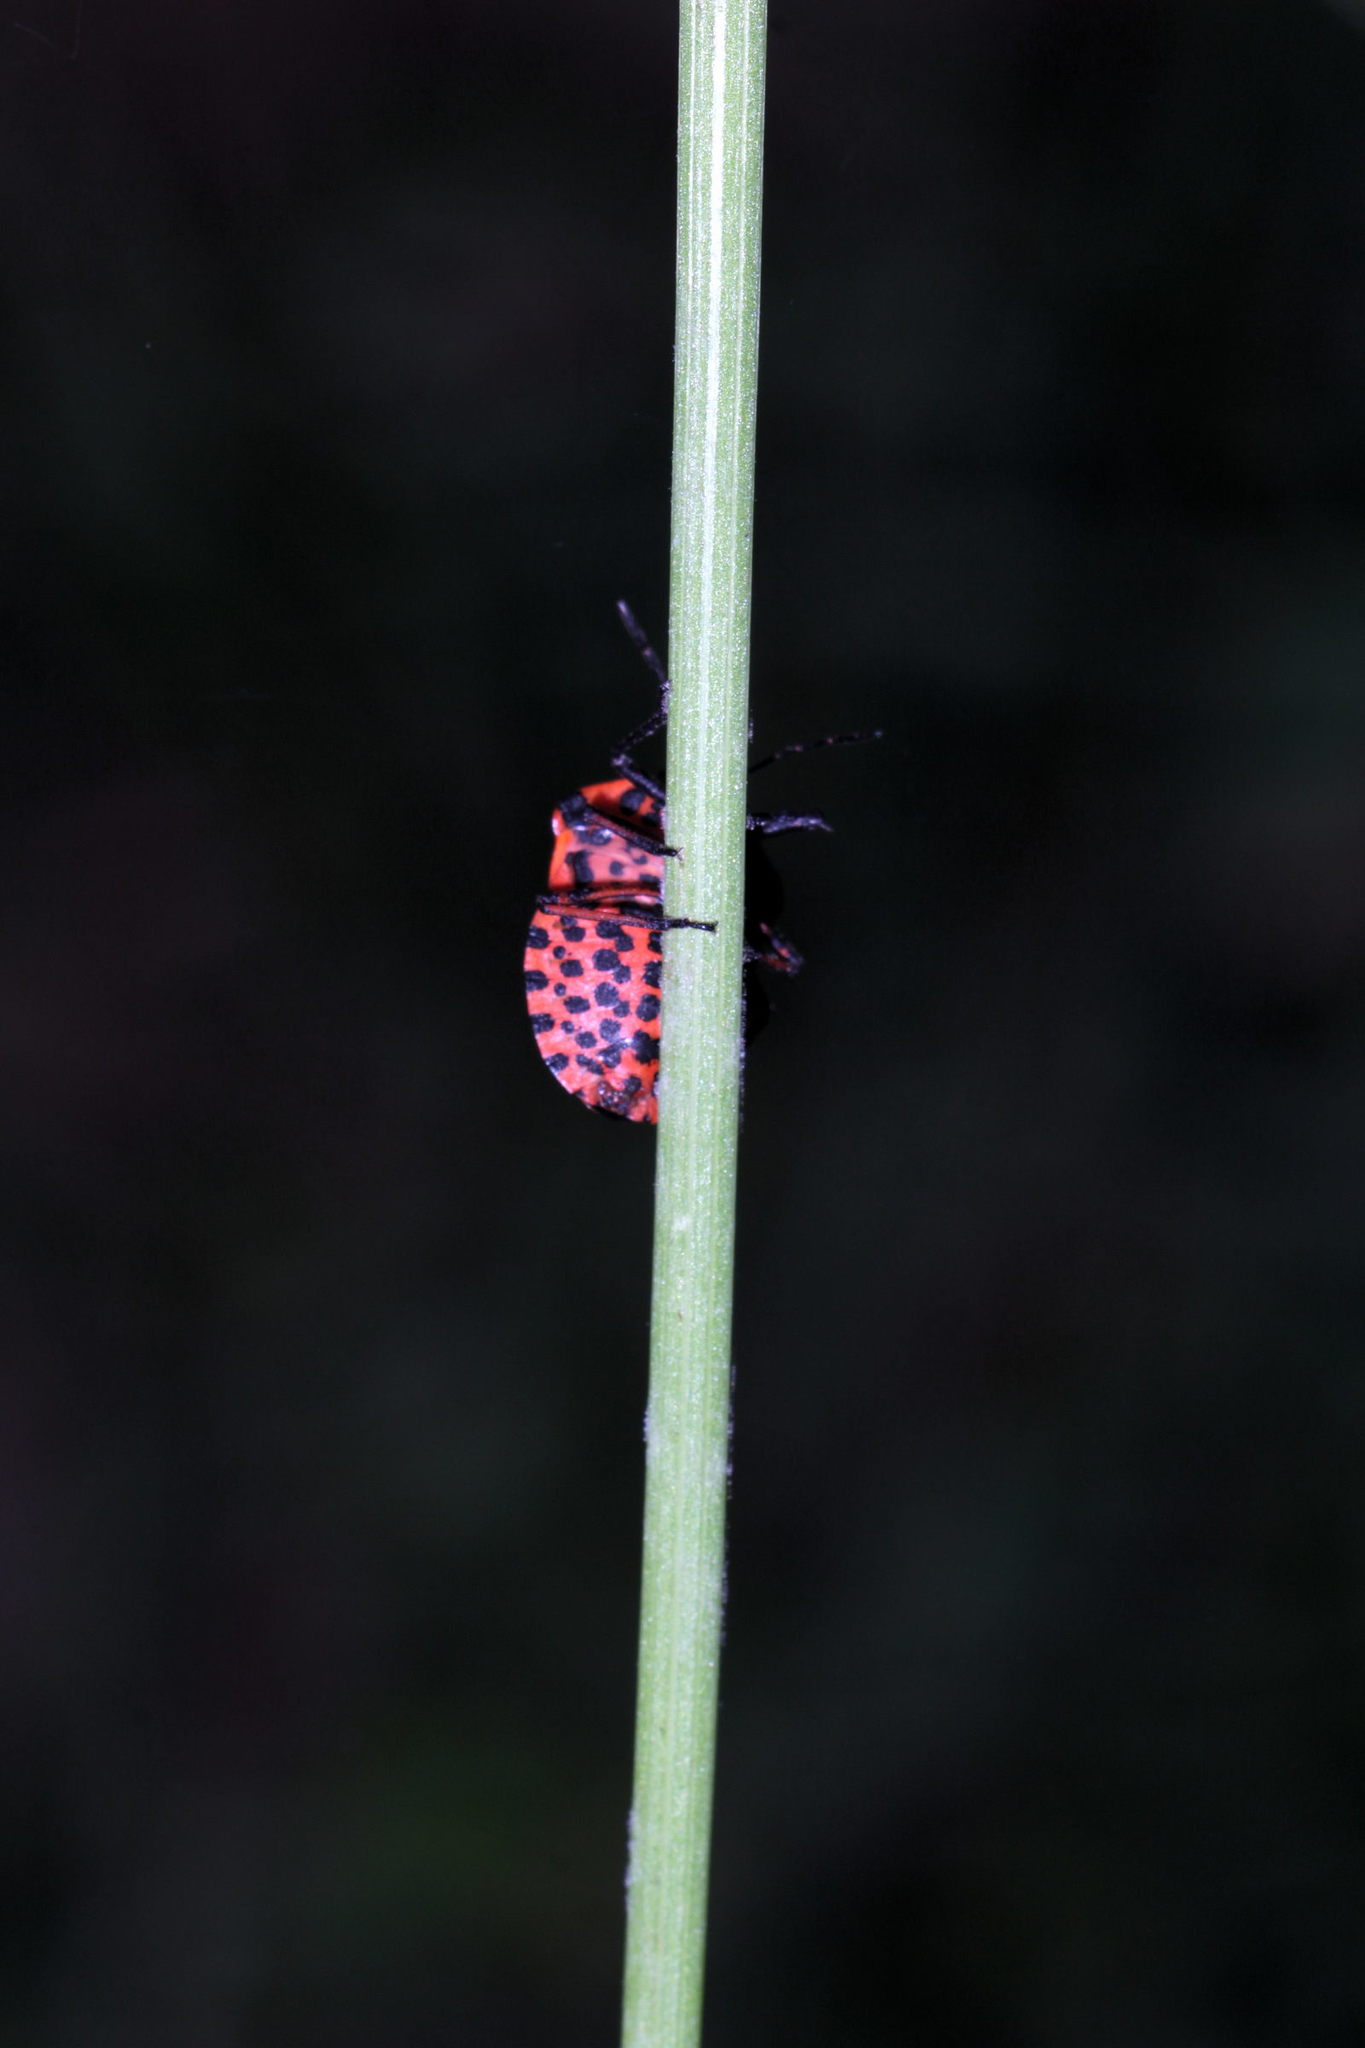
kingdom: Animalia
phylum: Arthropoda
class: Insecta
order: Hemiptera
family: Pentatomidae
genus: Graphosoma
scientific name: Graphosoma italicum
